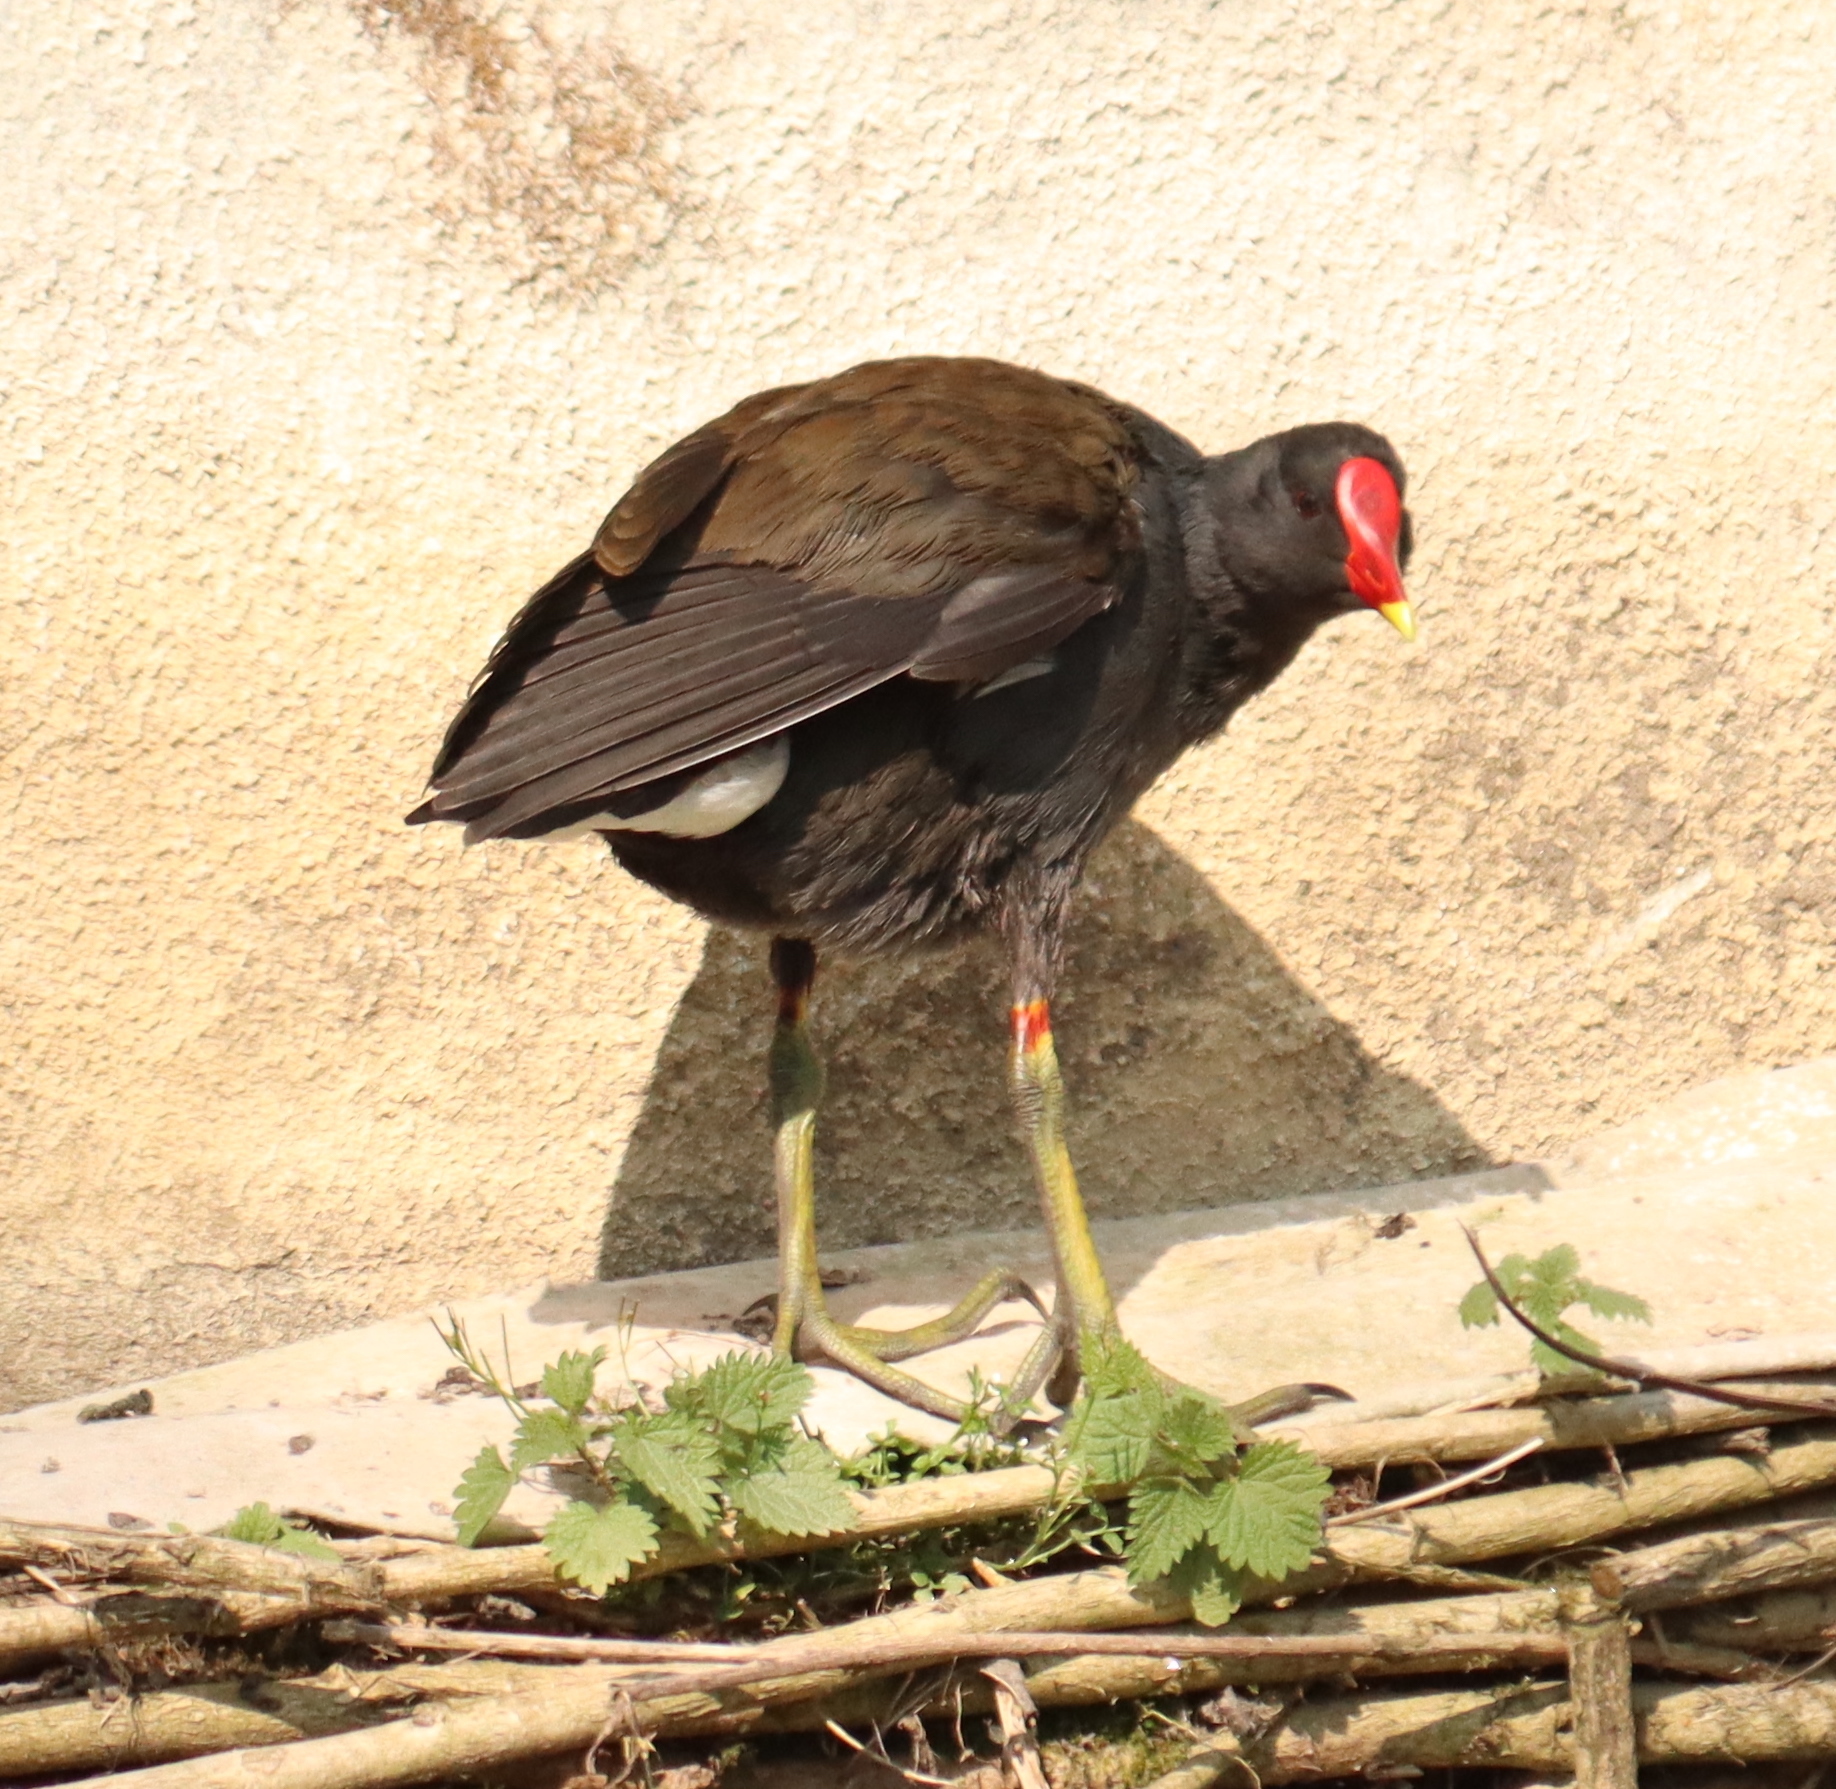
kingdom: Animalia
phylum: Chordata
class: Aves
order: Gruiformes
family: Rallidae
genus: Gallinula
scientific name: Gallinula chloropus
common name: Common moorhen
